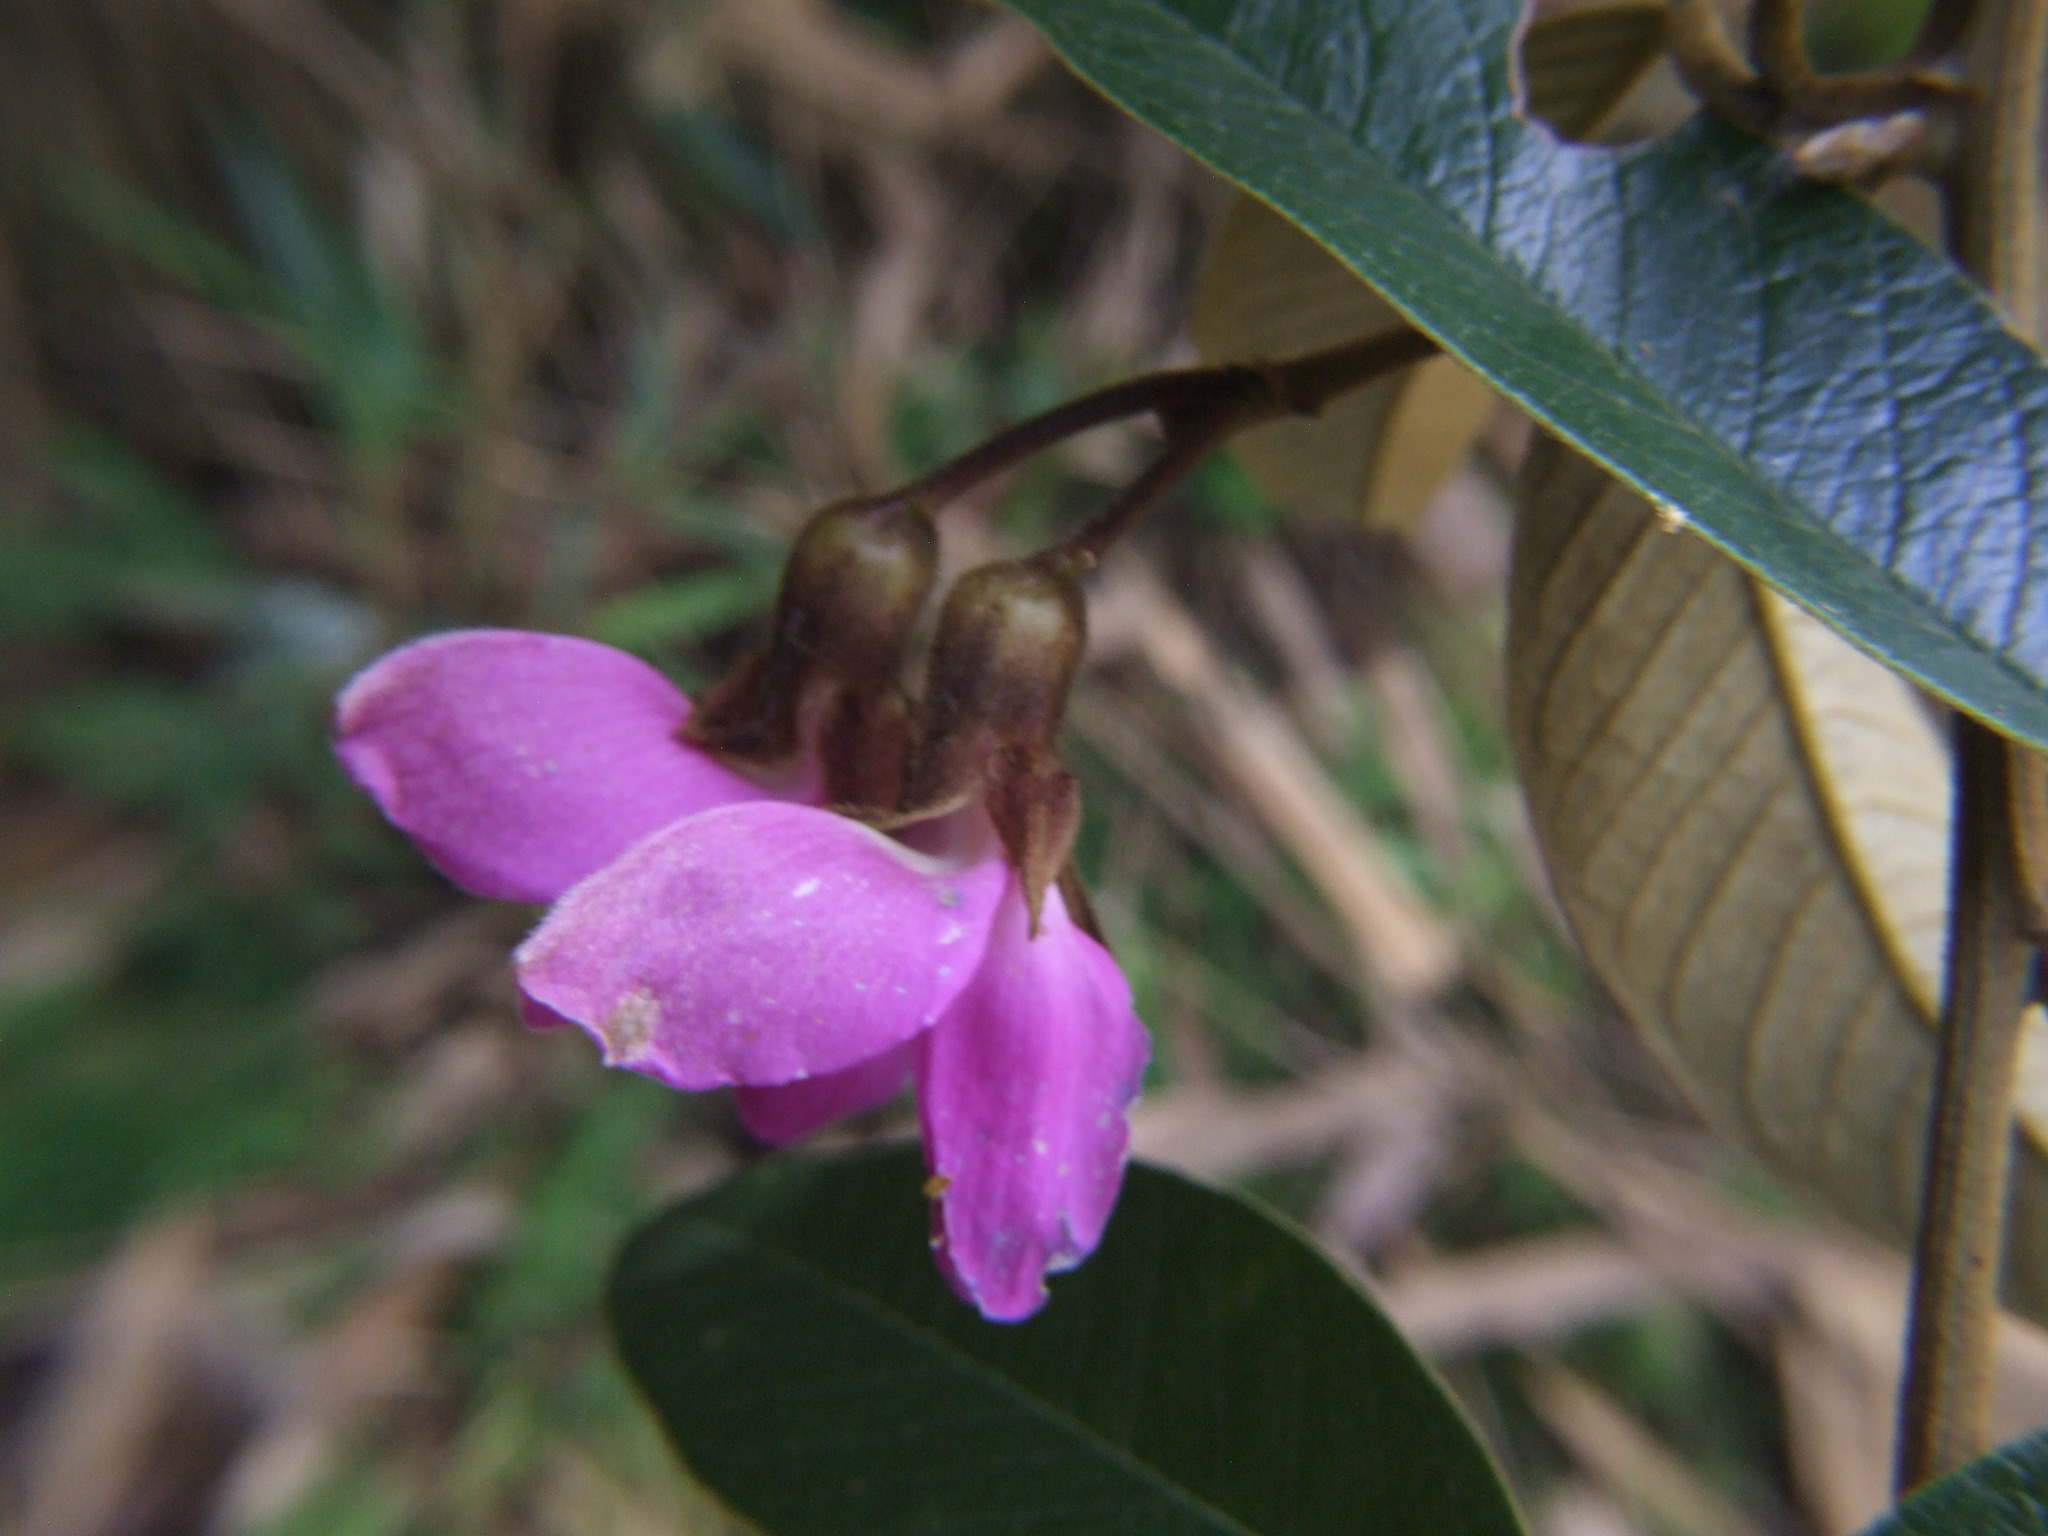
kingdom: Plantae
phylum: Tracheophyta
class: Magnoliopsida
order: Fabales
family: Fabaceae
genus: Collaea
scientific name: Collaea speciosa
